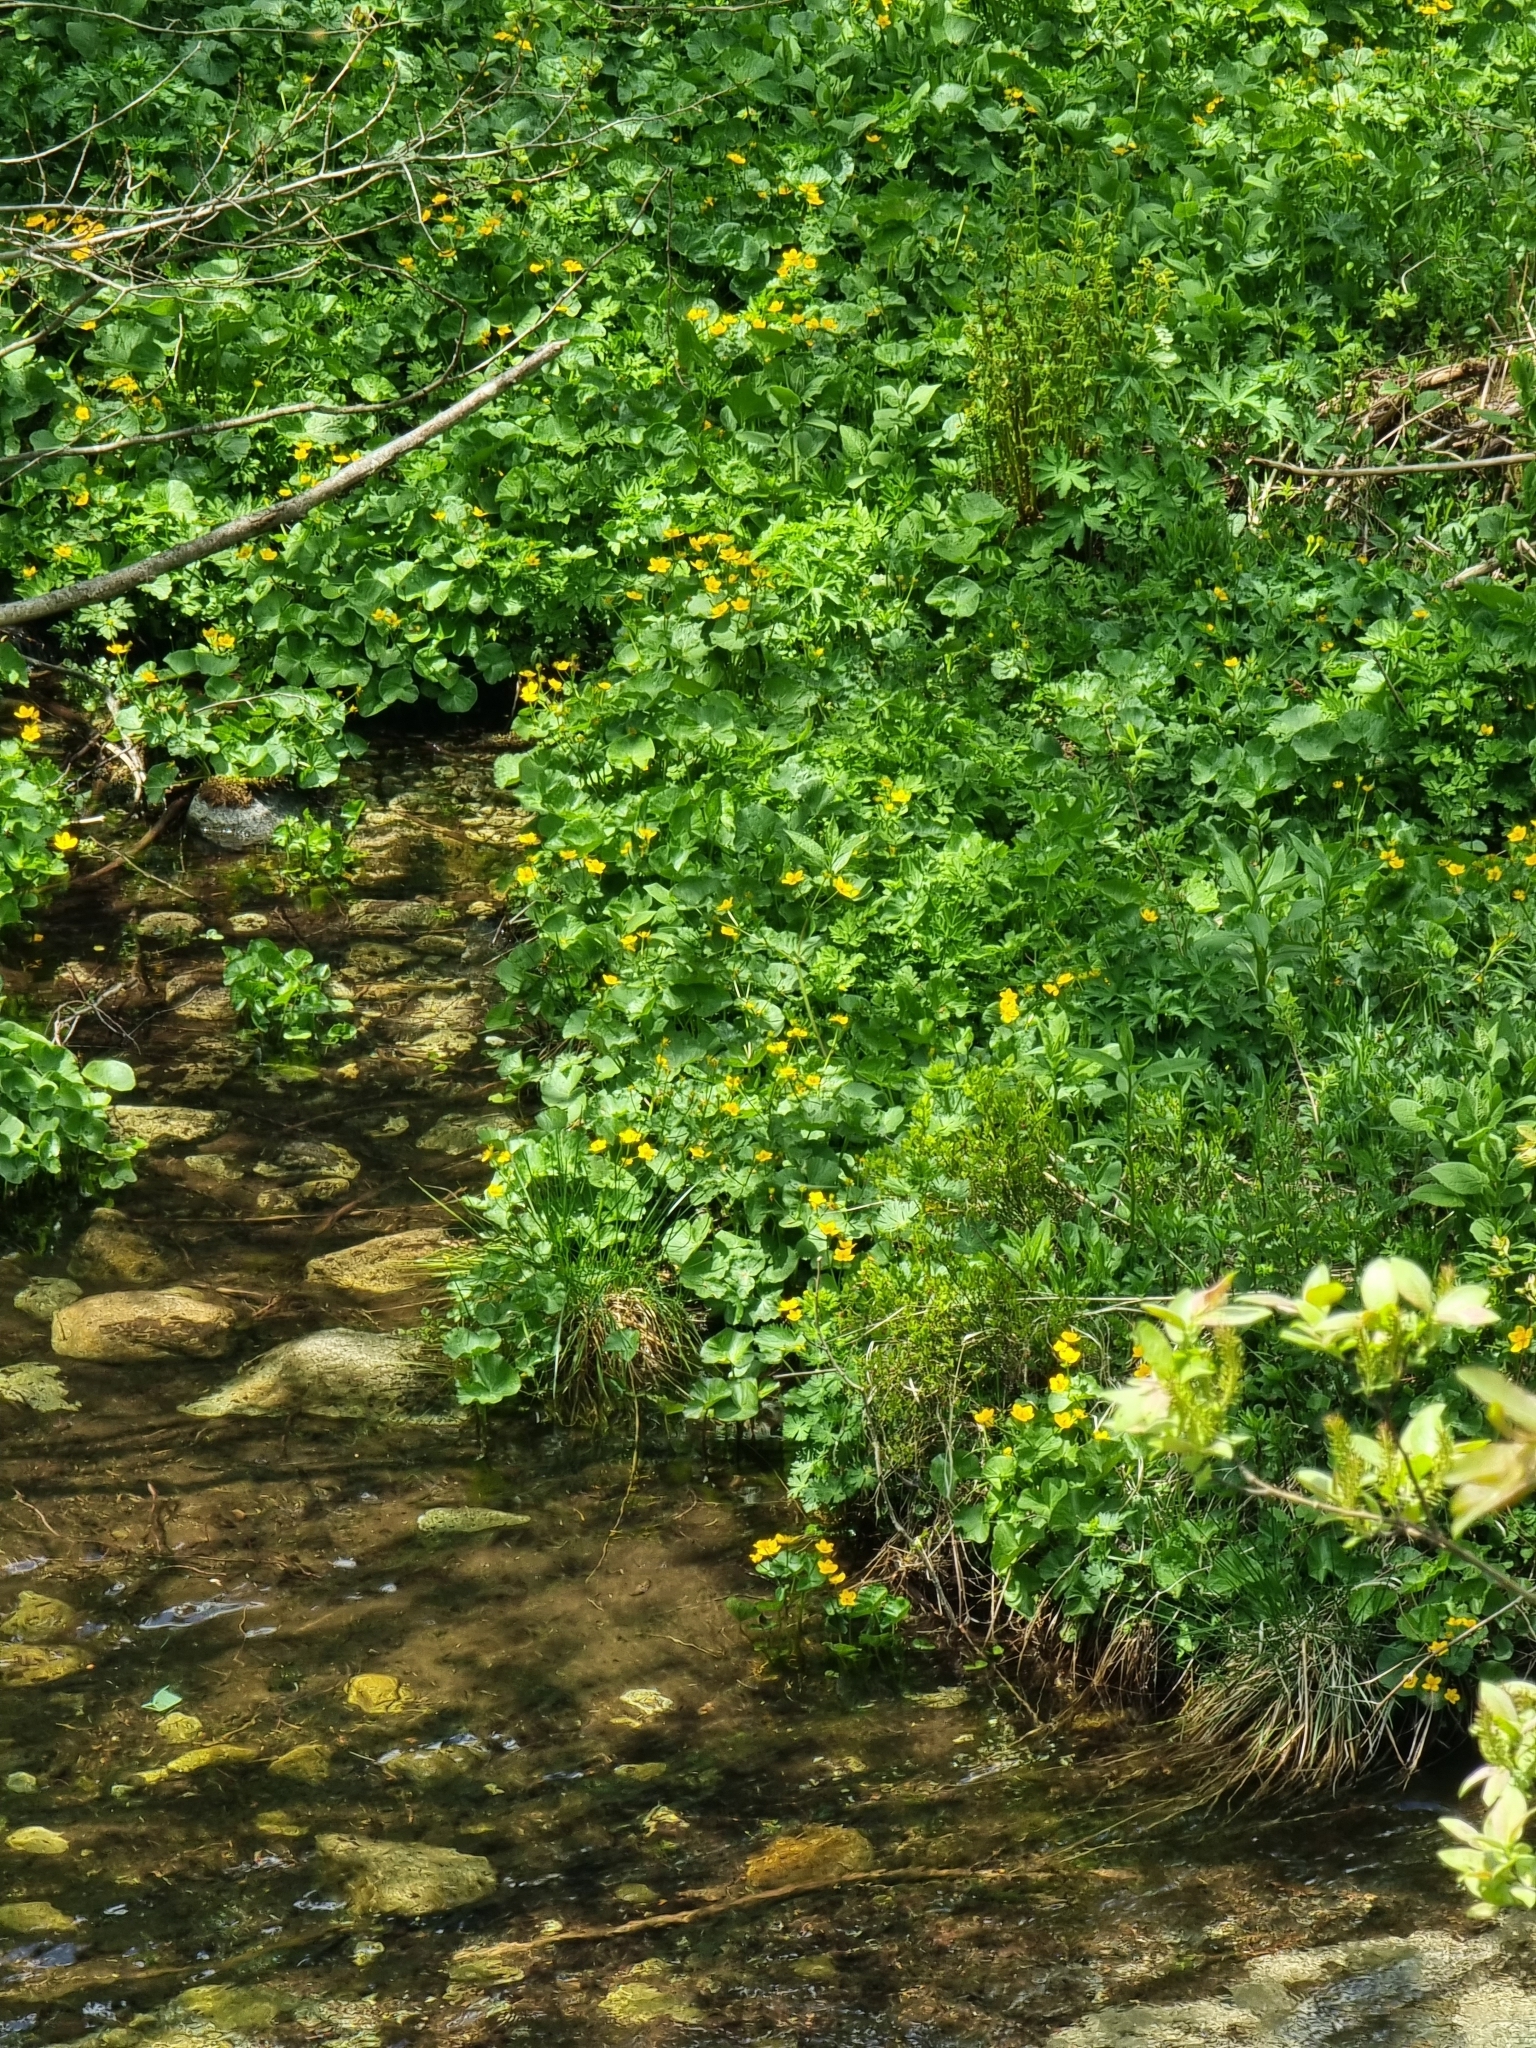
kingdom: Plantae
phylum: Tracheophyta
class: Magnoliopsida
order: Ranunculales
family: Ranunculaceae
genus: Caltha
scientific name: Caltha palustris
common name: Marsh marigold
